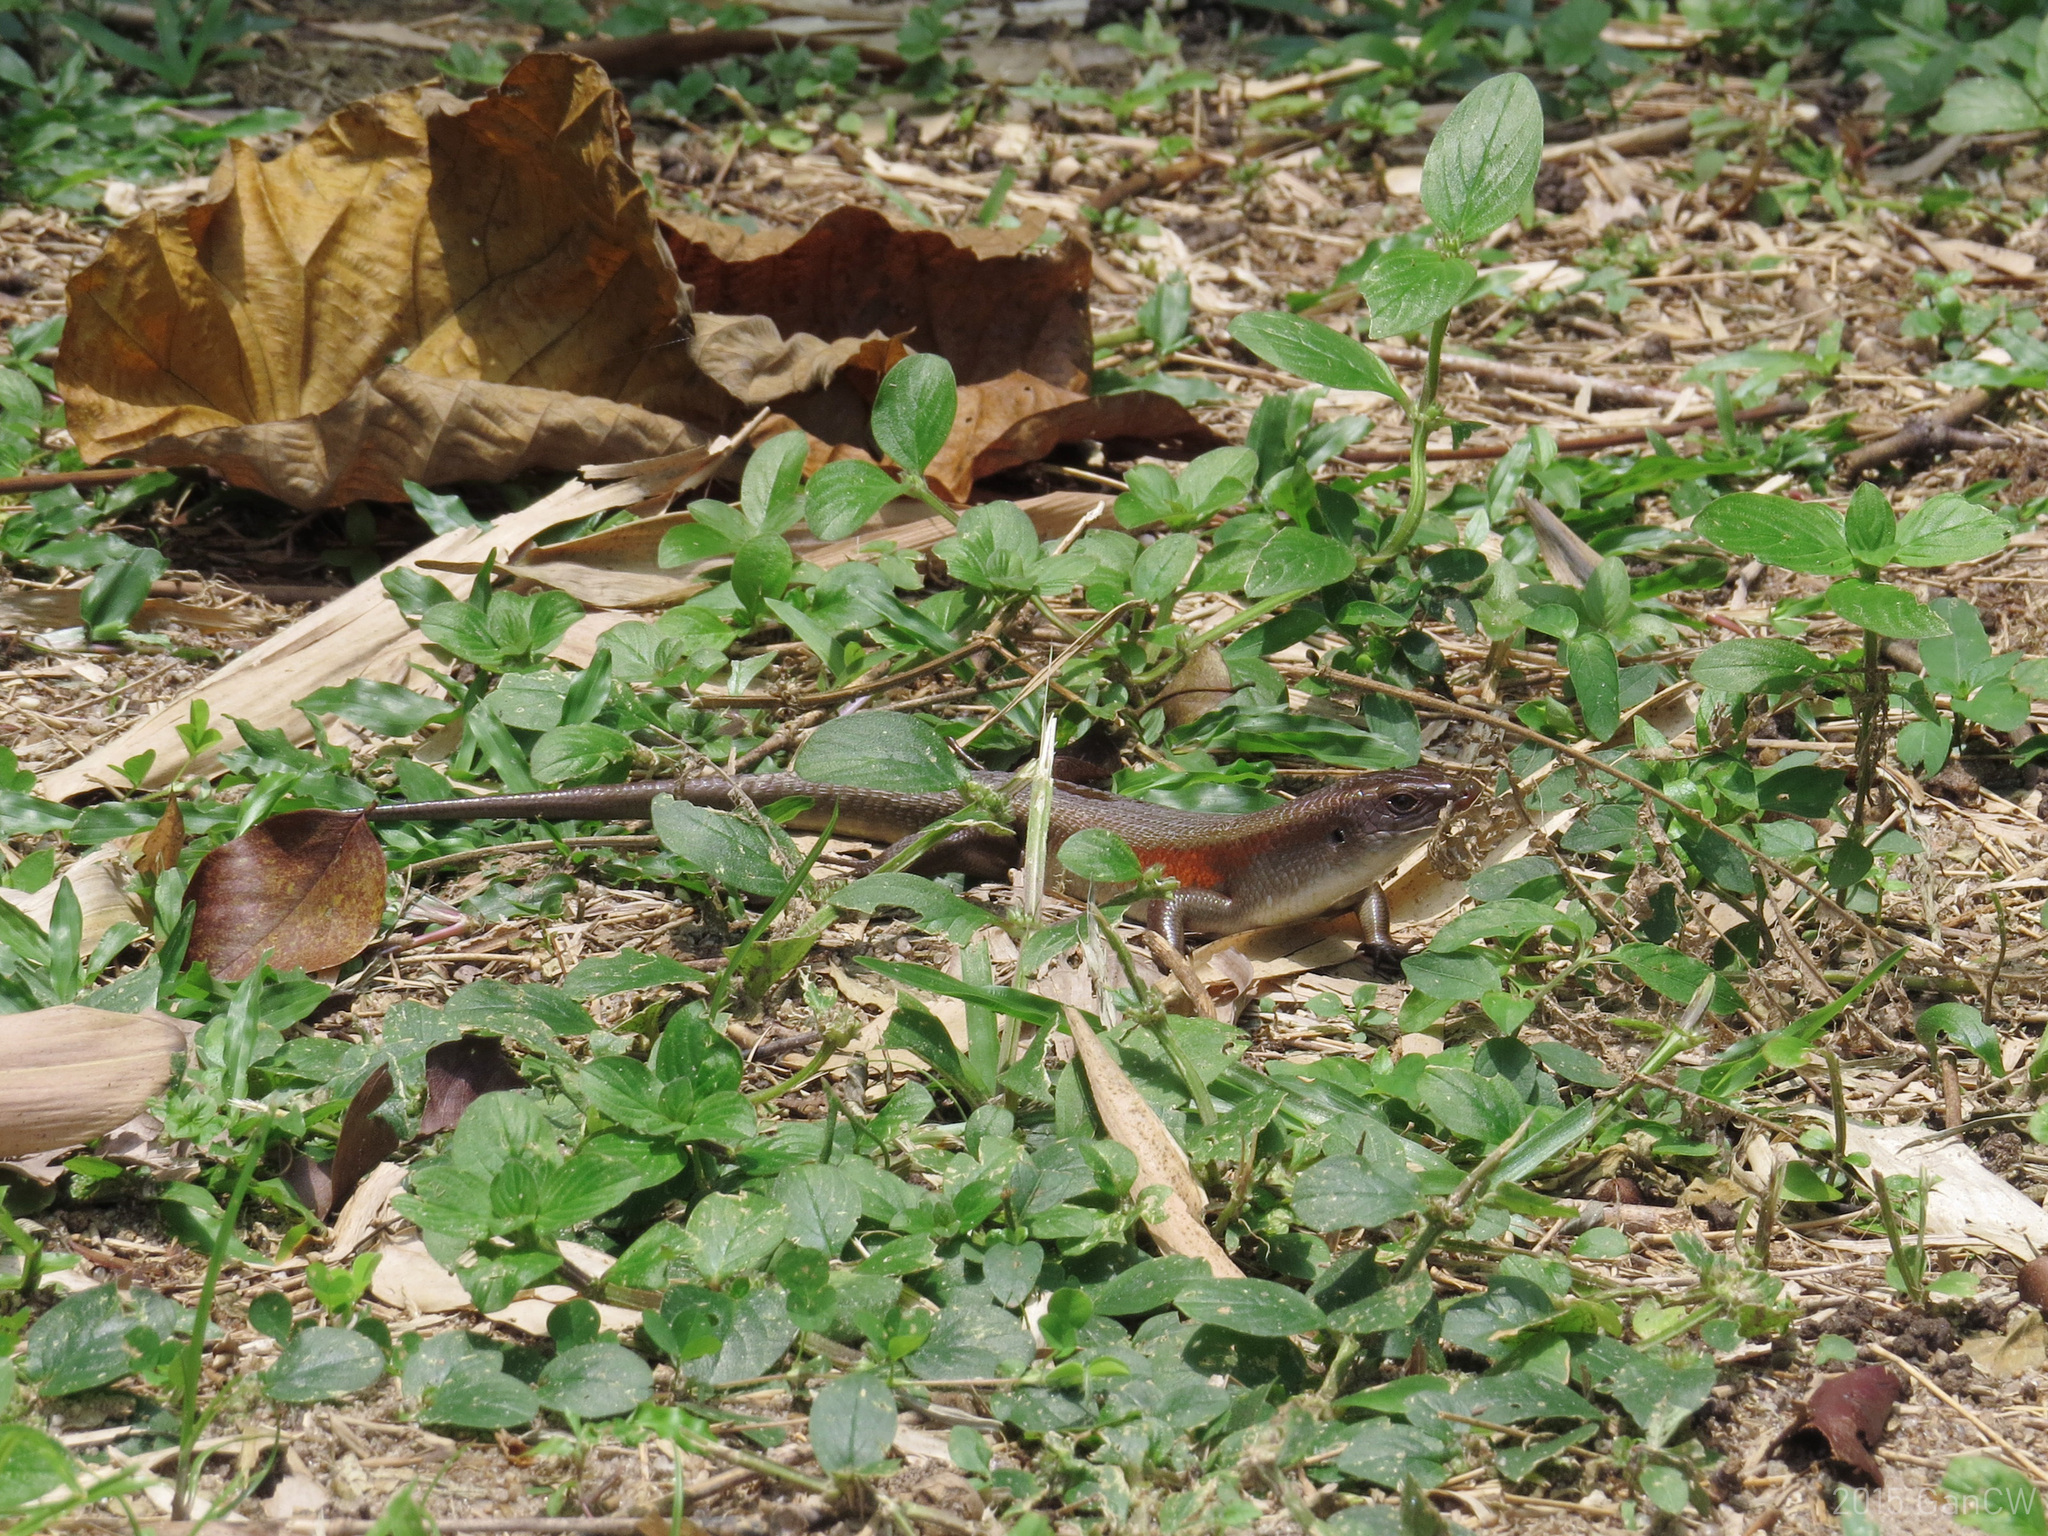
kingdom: Animalia
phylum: Chordata
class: Squamata
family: Scincidae
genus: Eutropis
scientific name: Eutropis multifasciata
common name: Common mabuya
